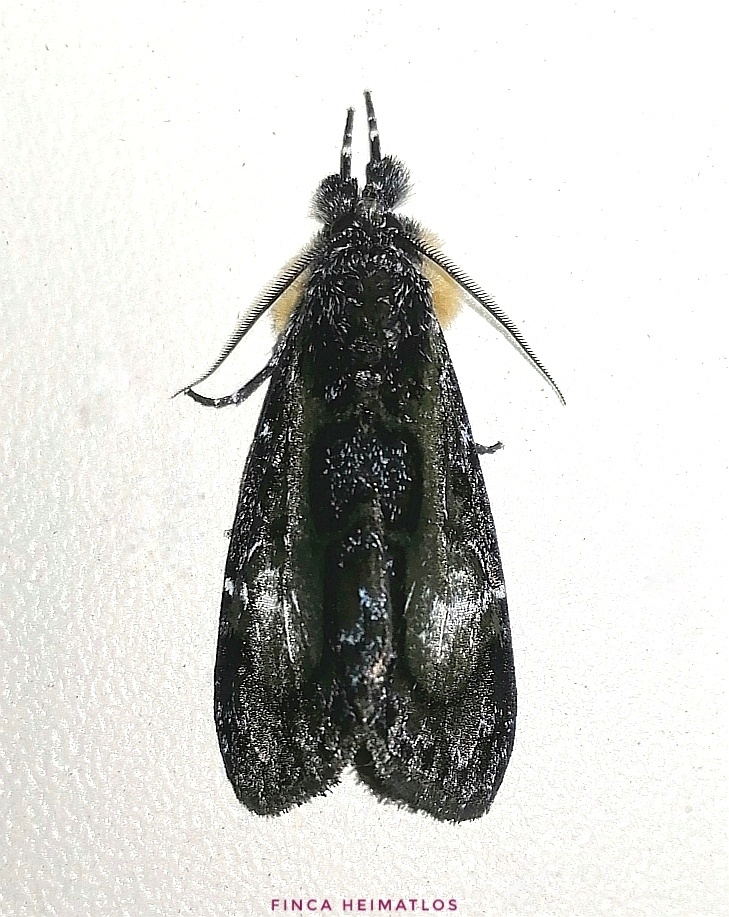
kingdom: Animalia
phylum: Arthropoda
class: Insecta
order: Lepidoptera
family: Noctuidae
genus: Erocha
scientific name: Erocha mummia
